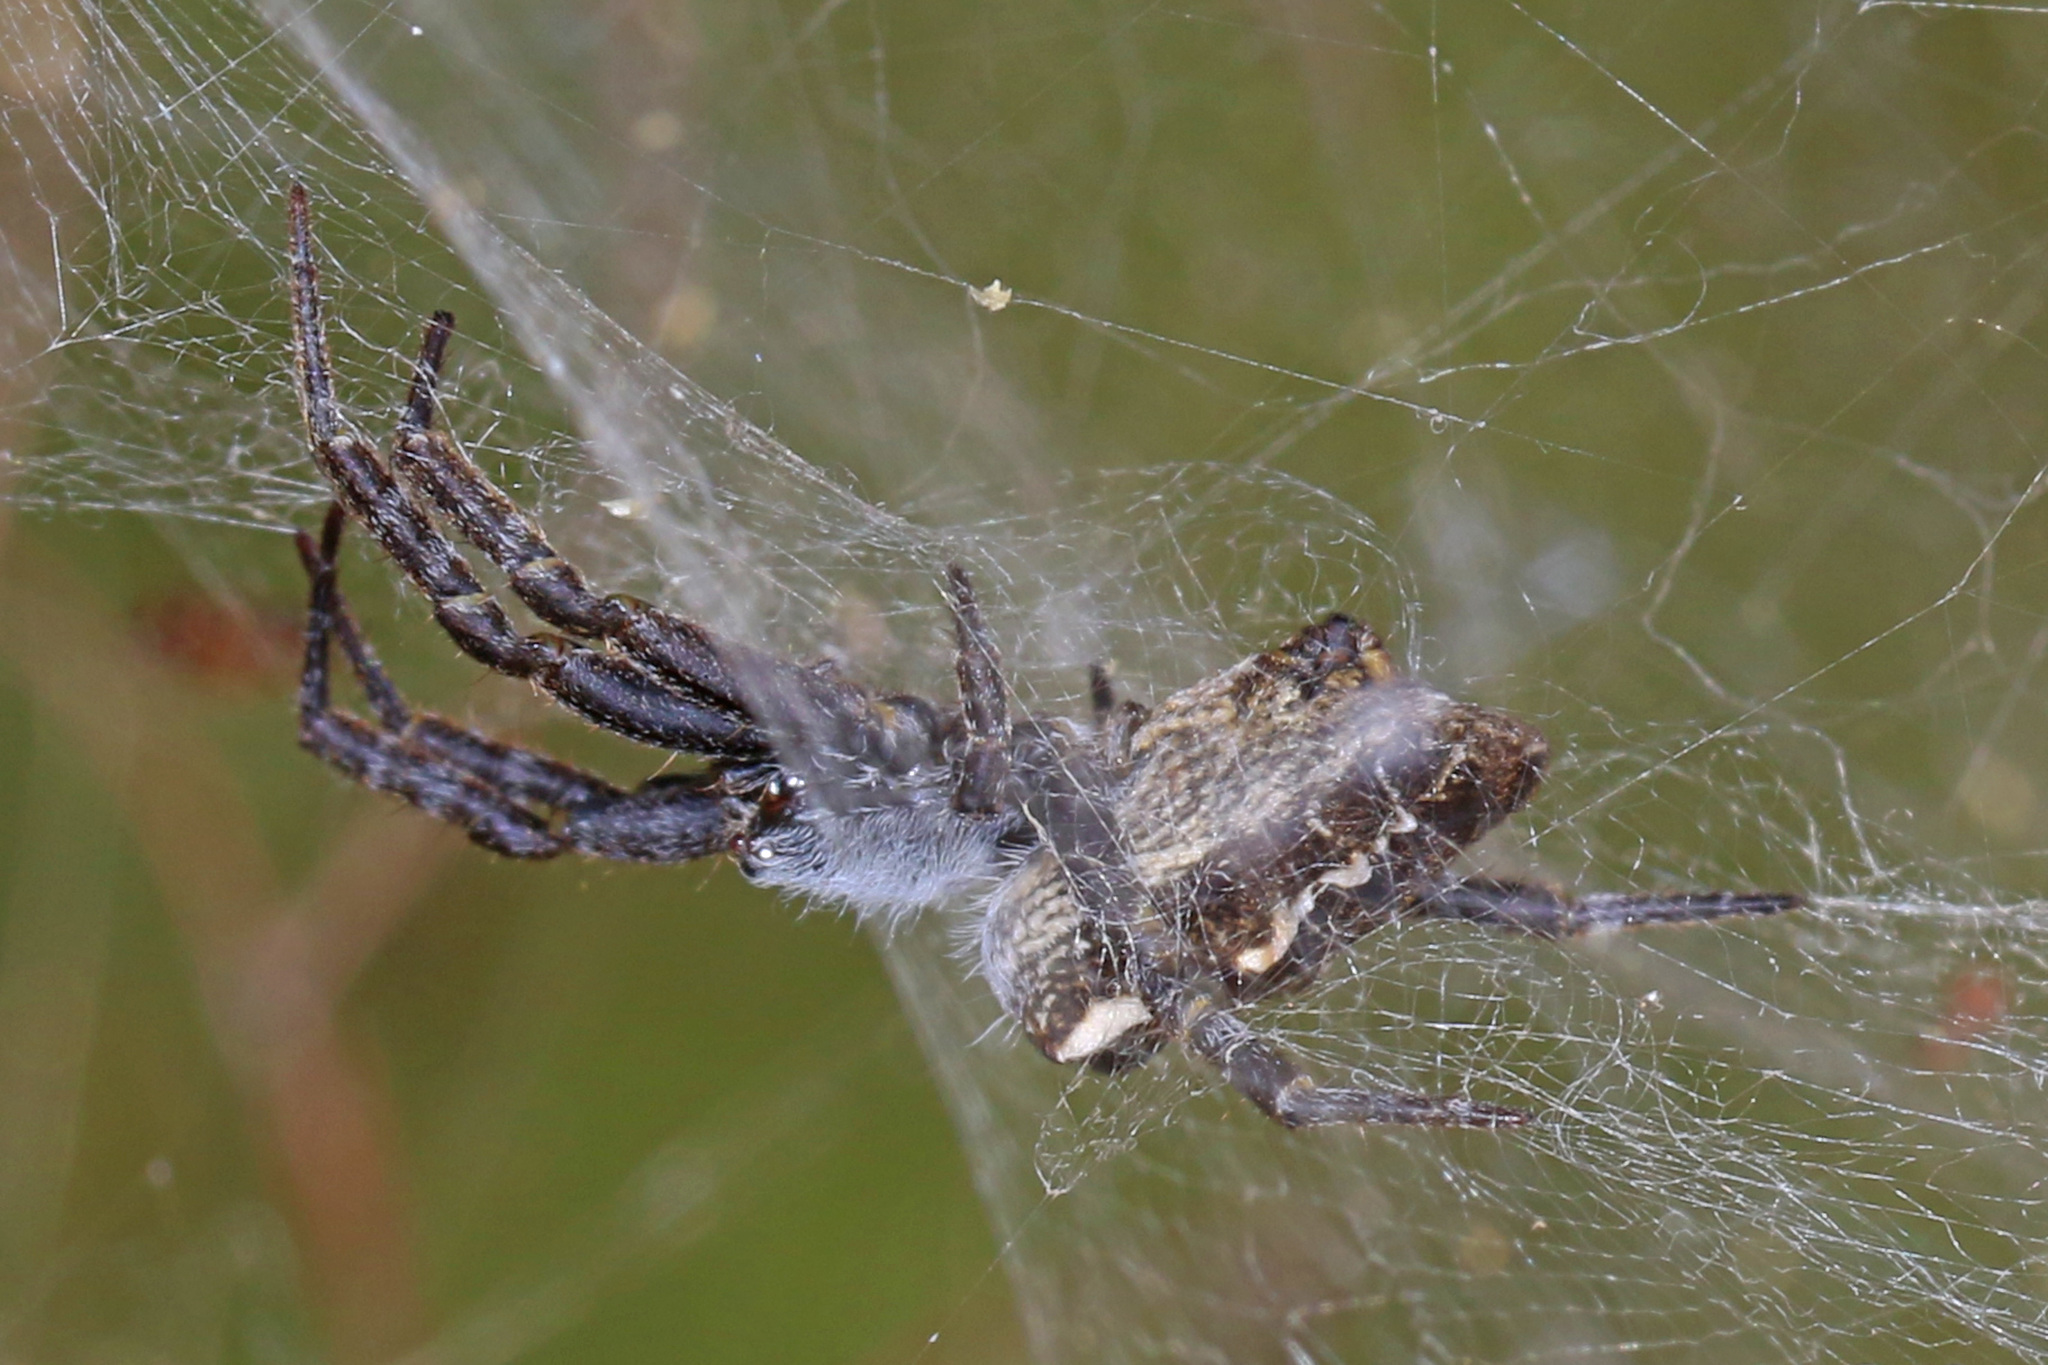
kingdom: Animalia
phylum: Arthropoda
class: Arachnida
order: Araneae
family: Araneidae
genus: Cyrtophora
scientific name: Cyrtophora citricola
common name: Orb weavers
